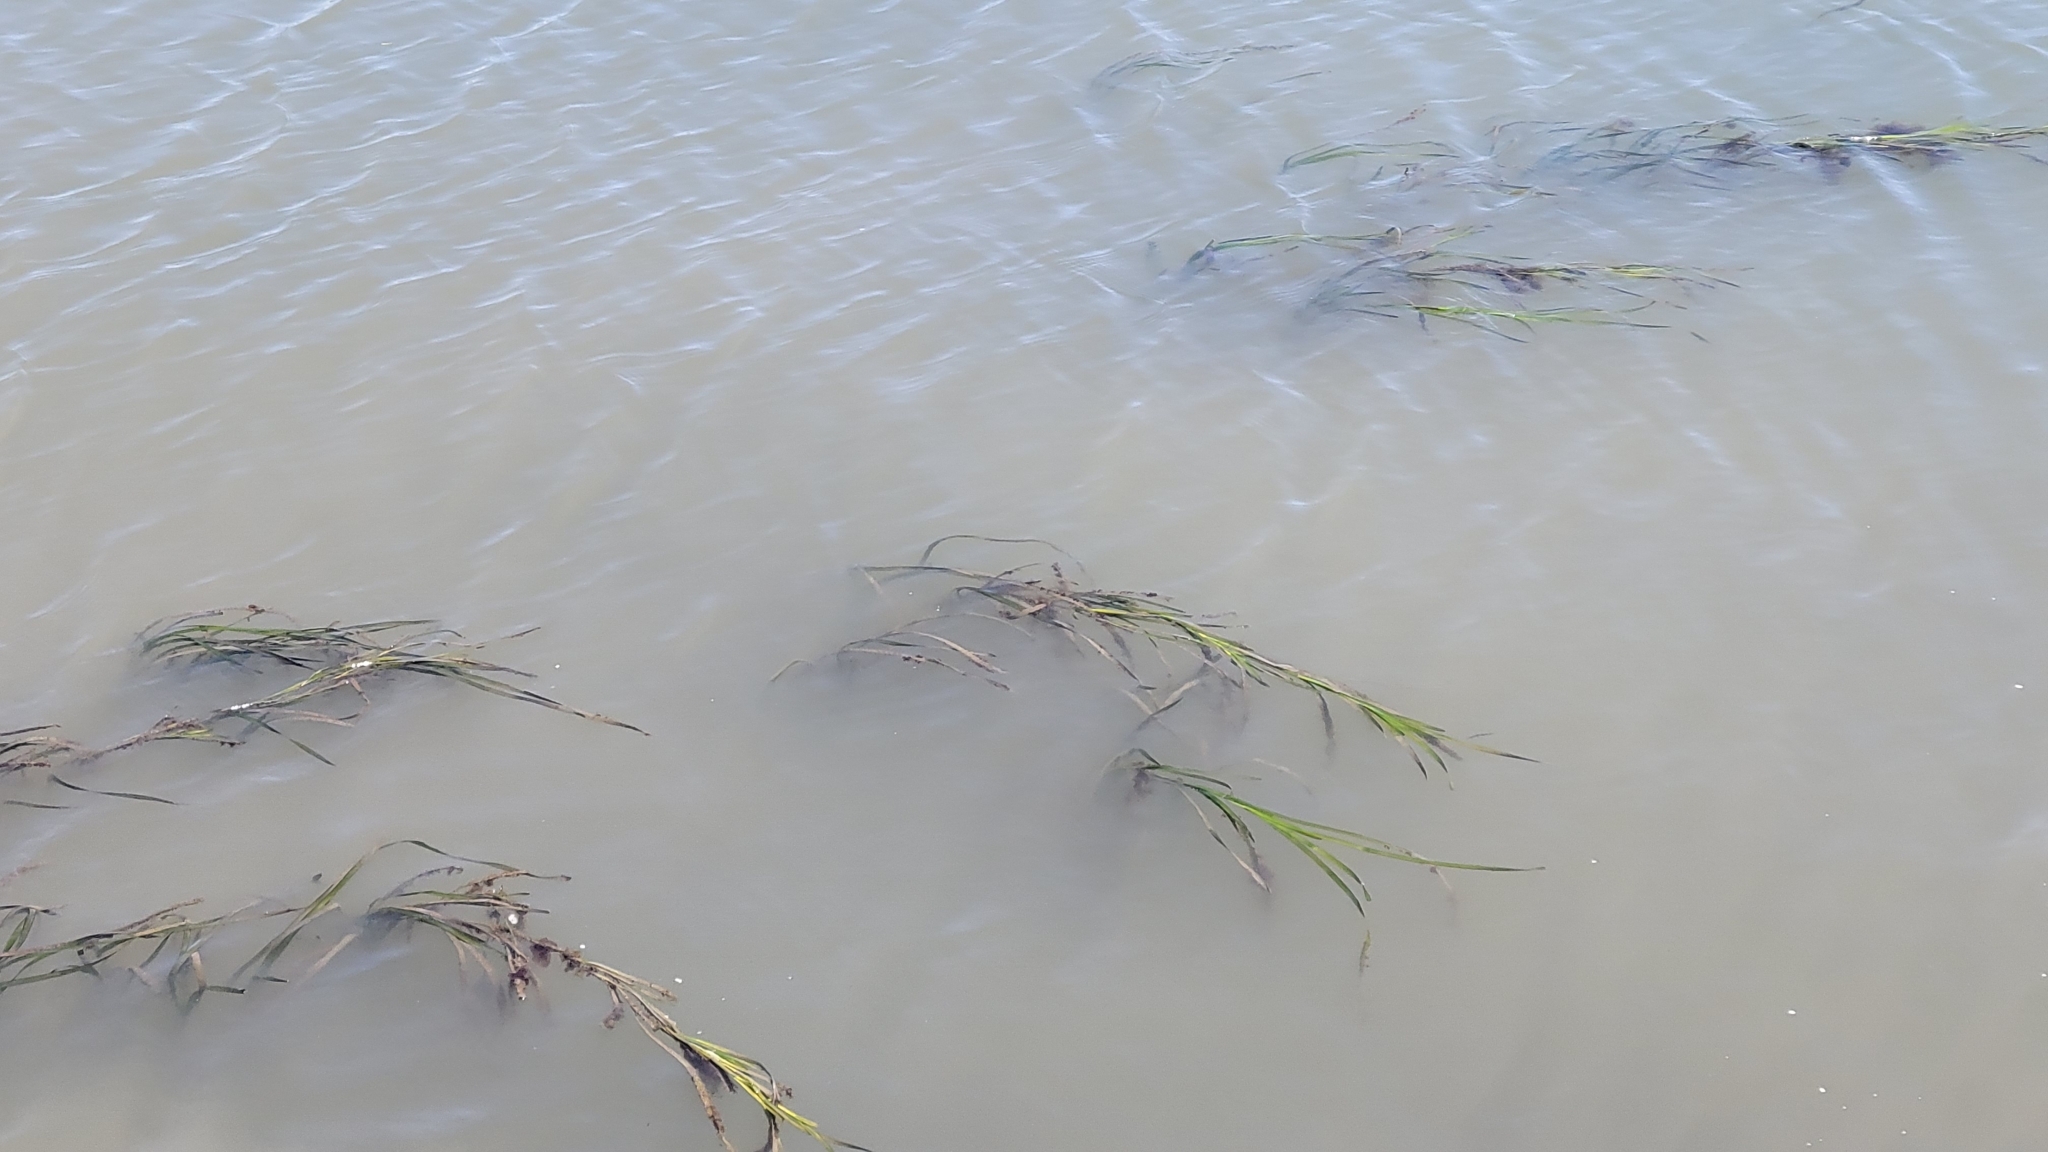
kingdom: Plantae
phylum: Tracheophyta
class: Liliopsida
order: Alismatales
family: Zosteraceae
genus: Zostera
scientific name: Zostera marina
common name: Eelgrass
